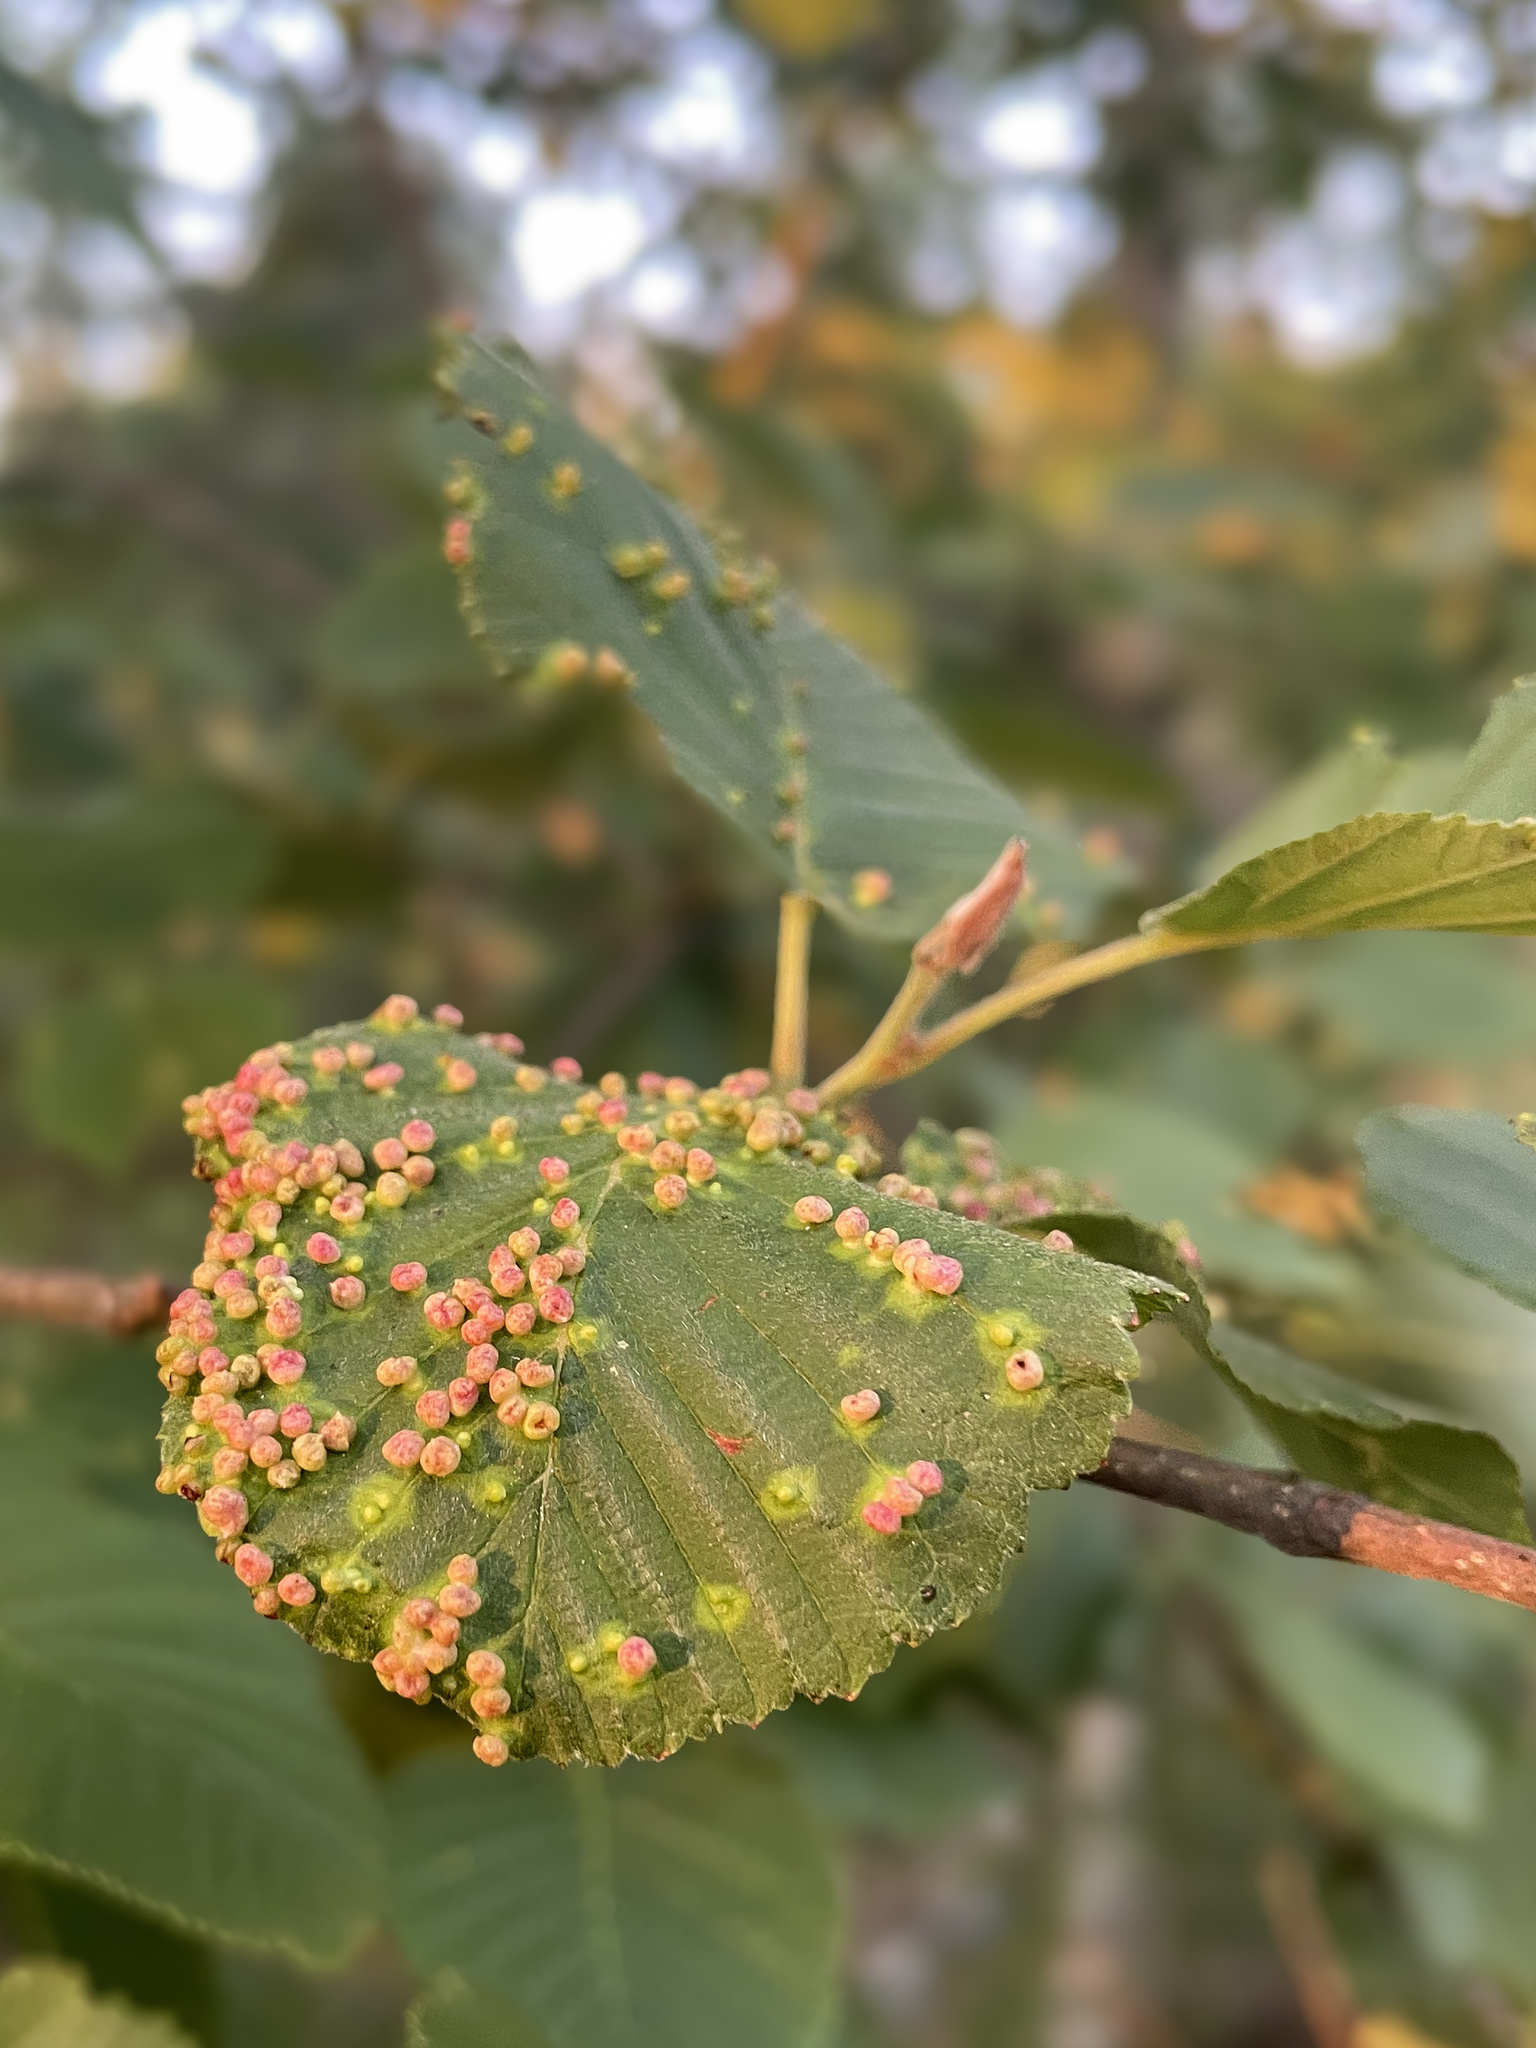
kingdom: Animalia
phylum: Arthropoda
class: Arachnida
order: Trombidiformes
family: Eriophyidae
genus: Eriophyes
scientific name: Eriophyes alniincanae
